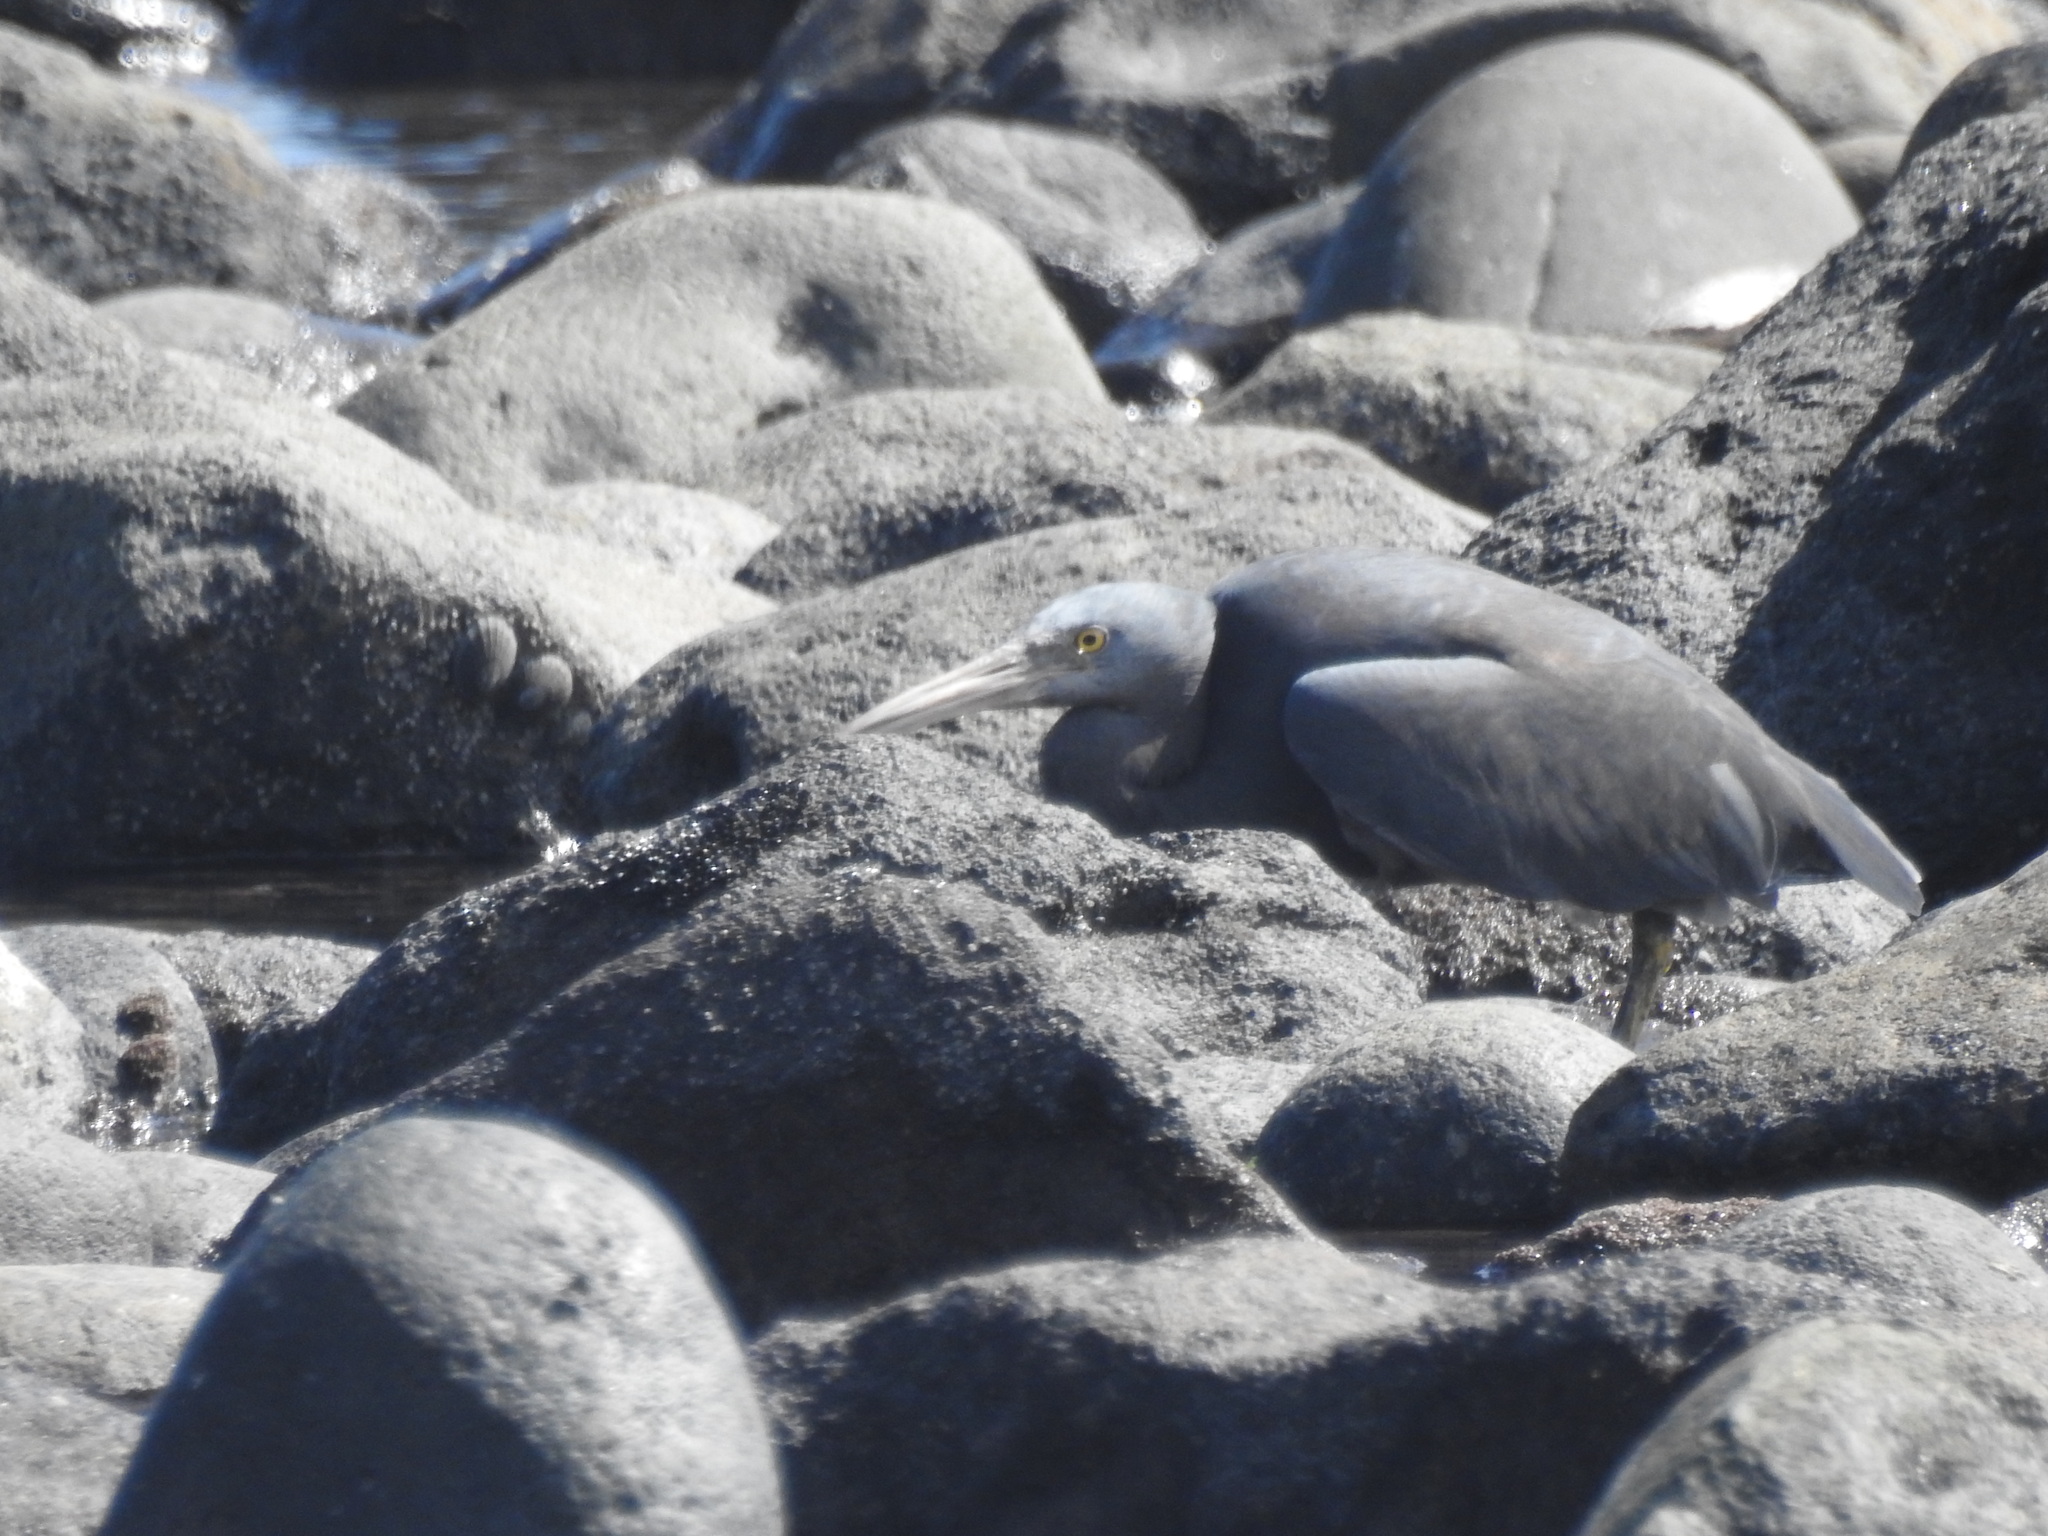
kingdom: Animalia
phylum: Chordata
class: Aves
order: Pelecaniformes
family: Ardeidae
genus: Egretta
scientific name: Egretta sacra
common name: Pacific reef heron
